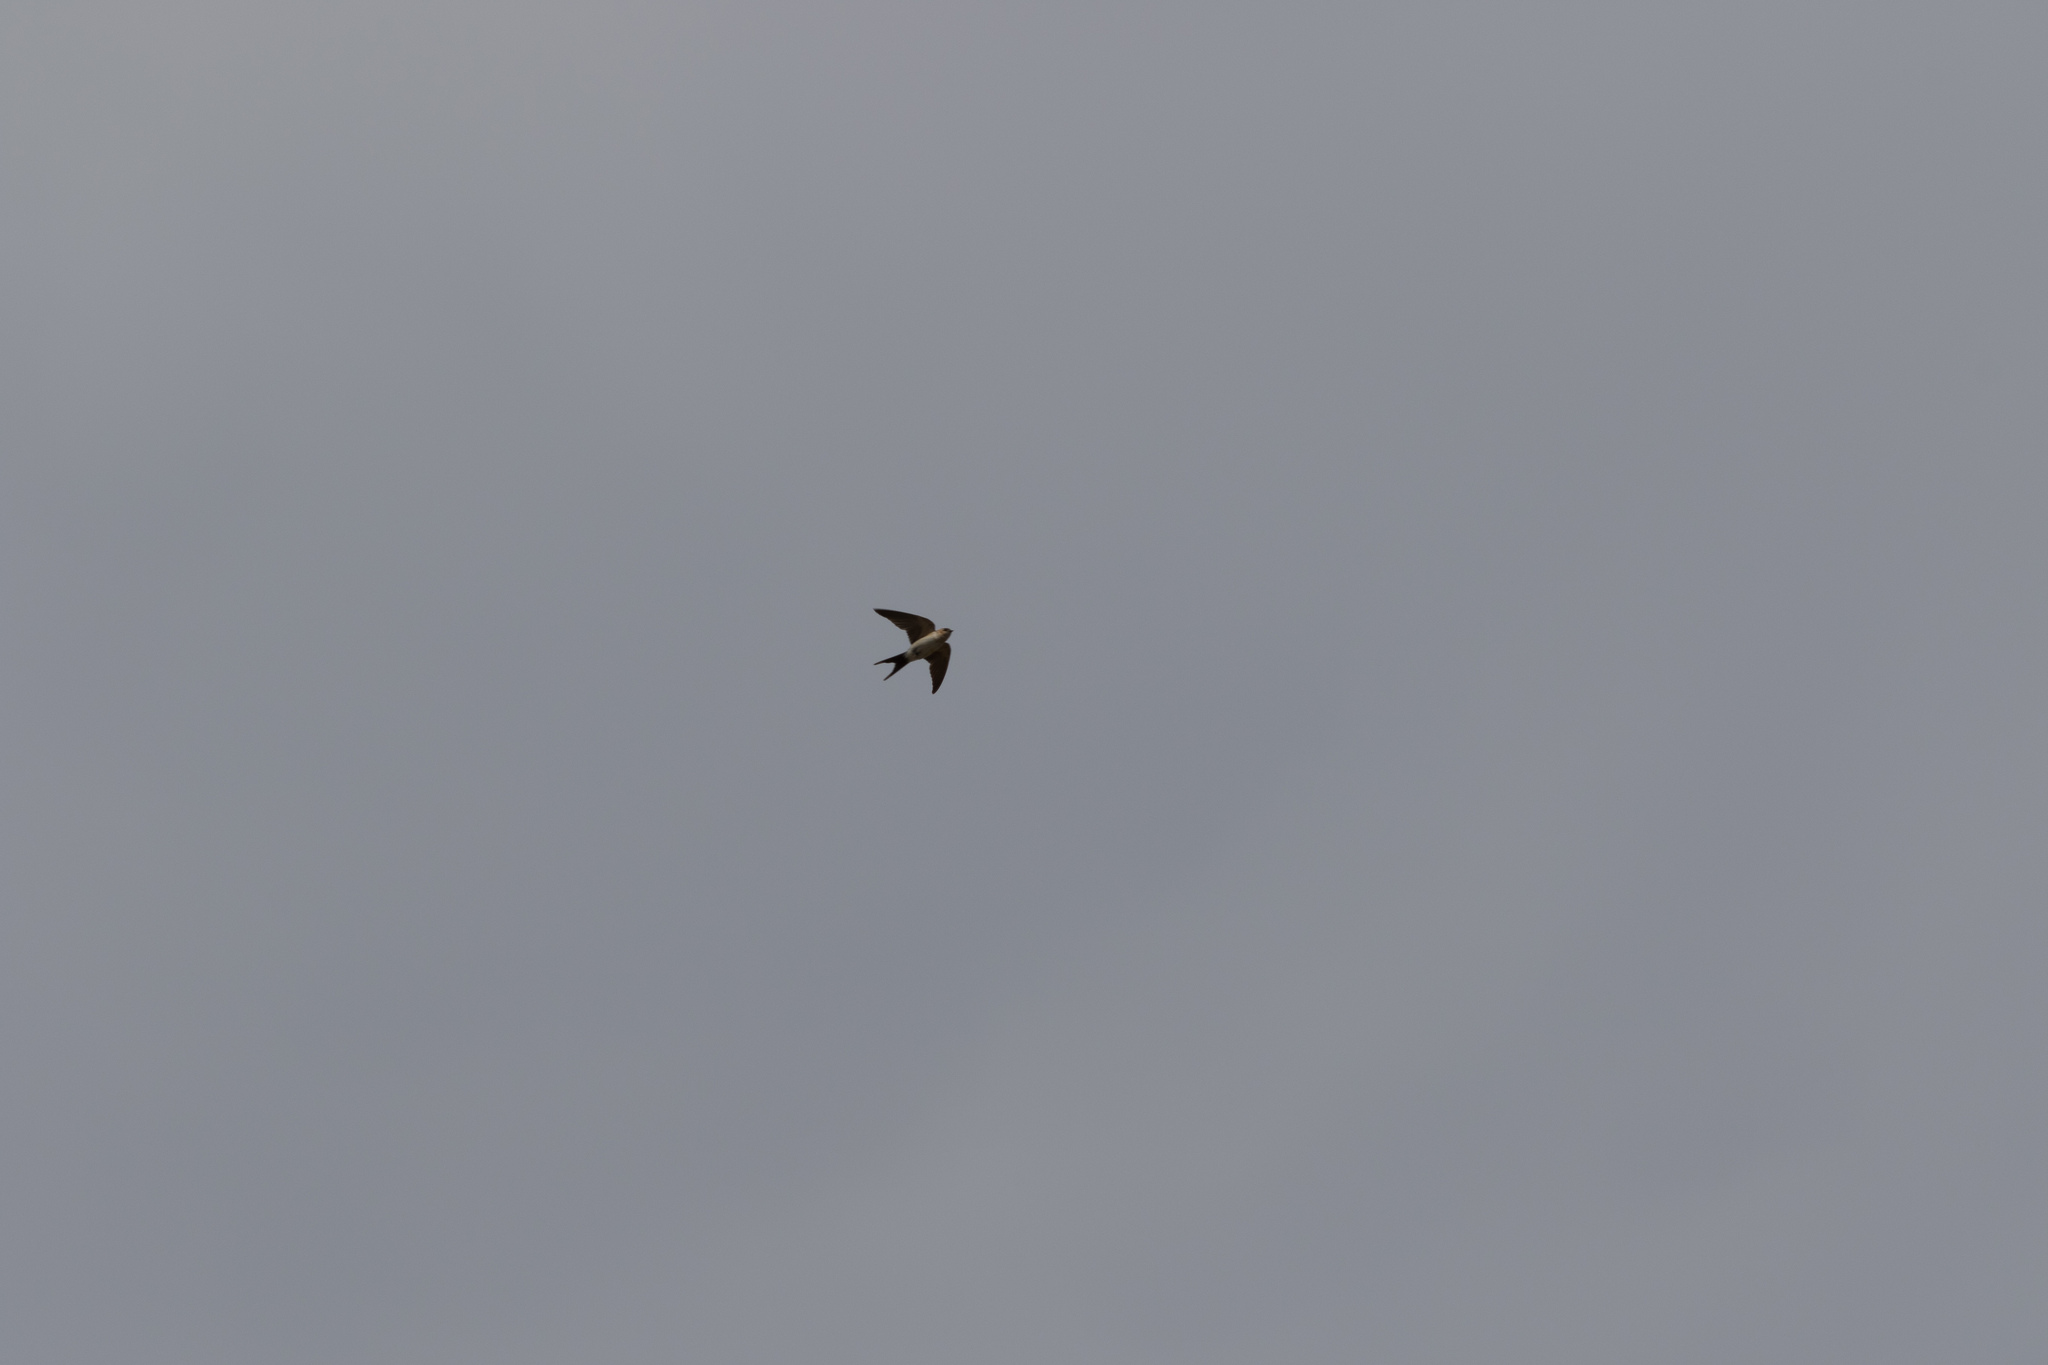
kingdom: Animalia
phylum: Chordata
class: Aves
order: Passeriformes
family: Hirundinidae
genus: Cecropis
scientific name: Cecropis daurica
